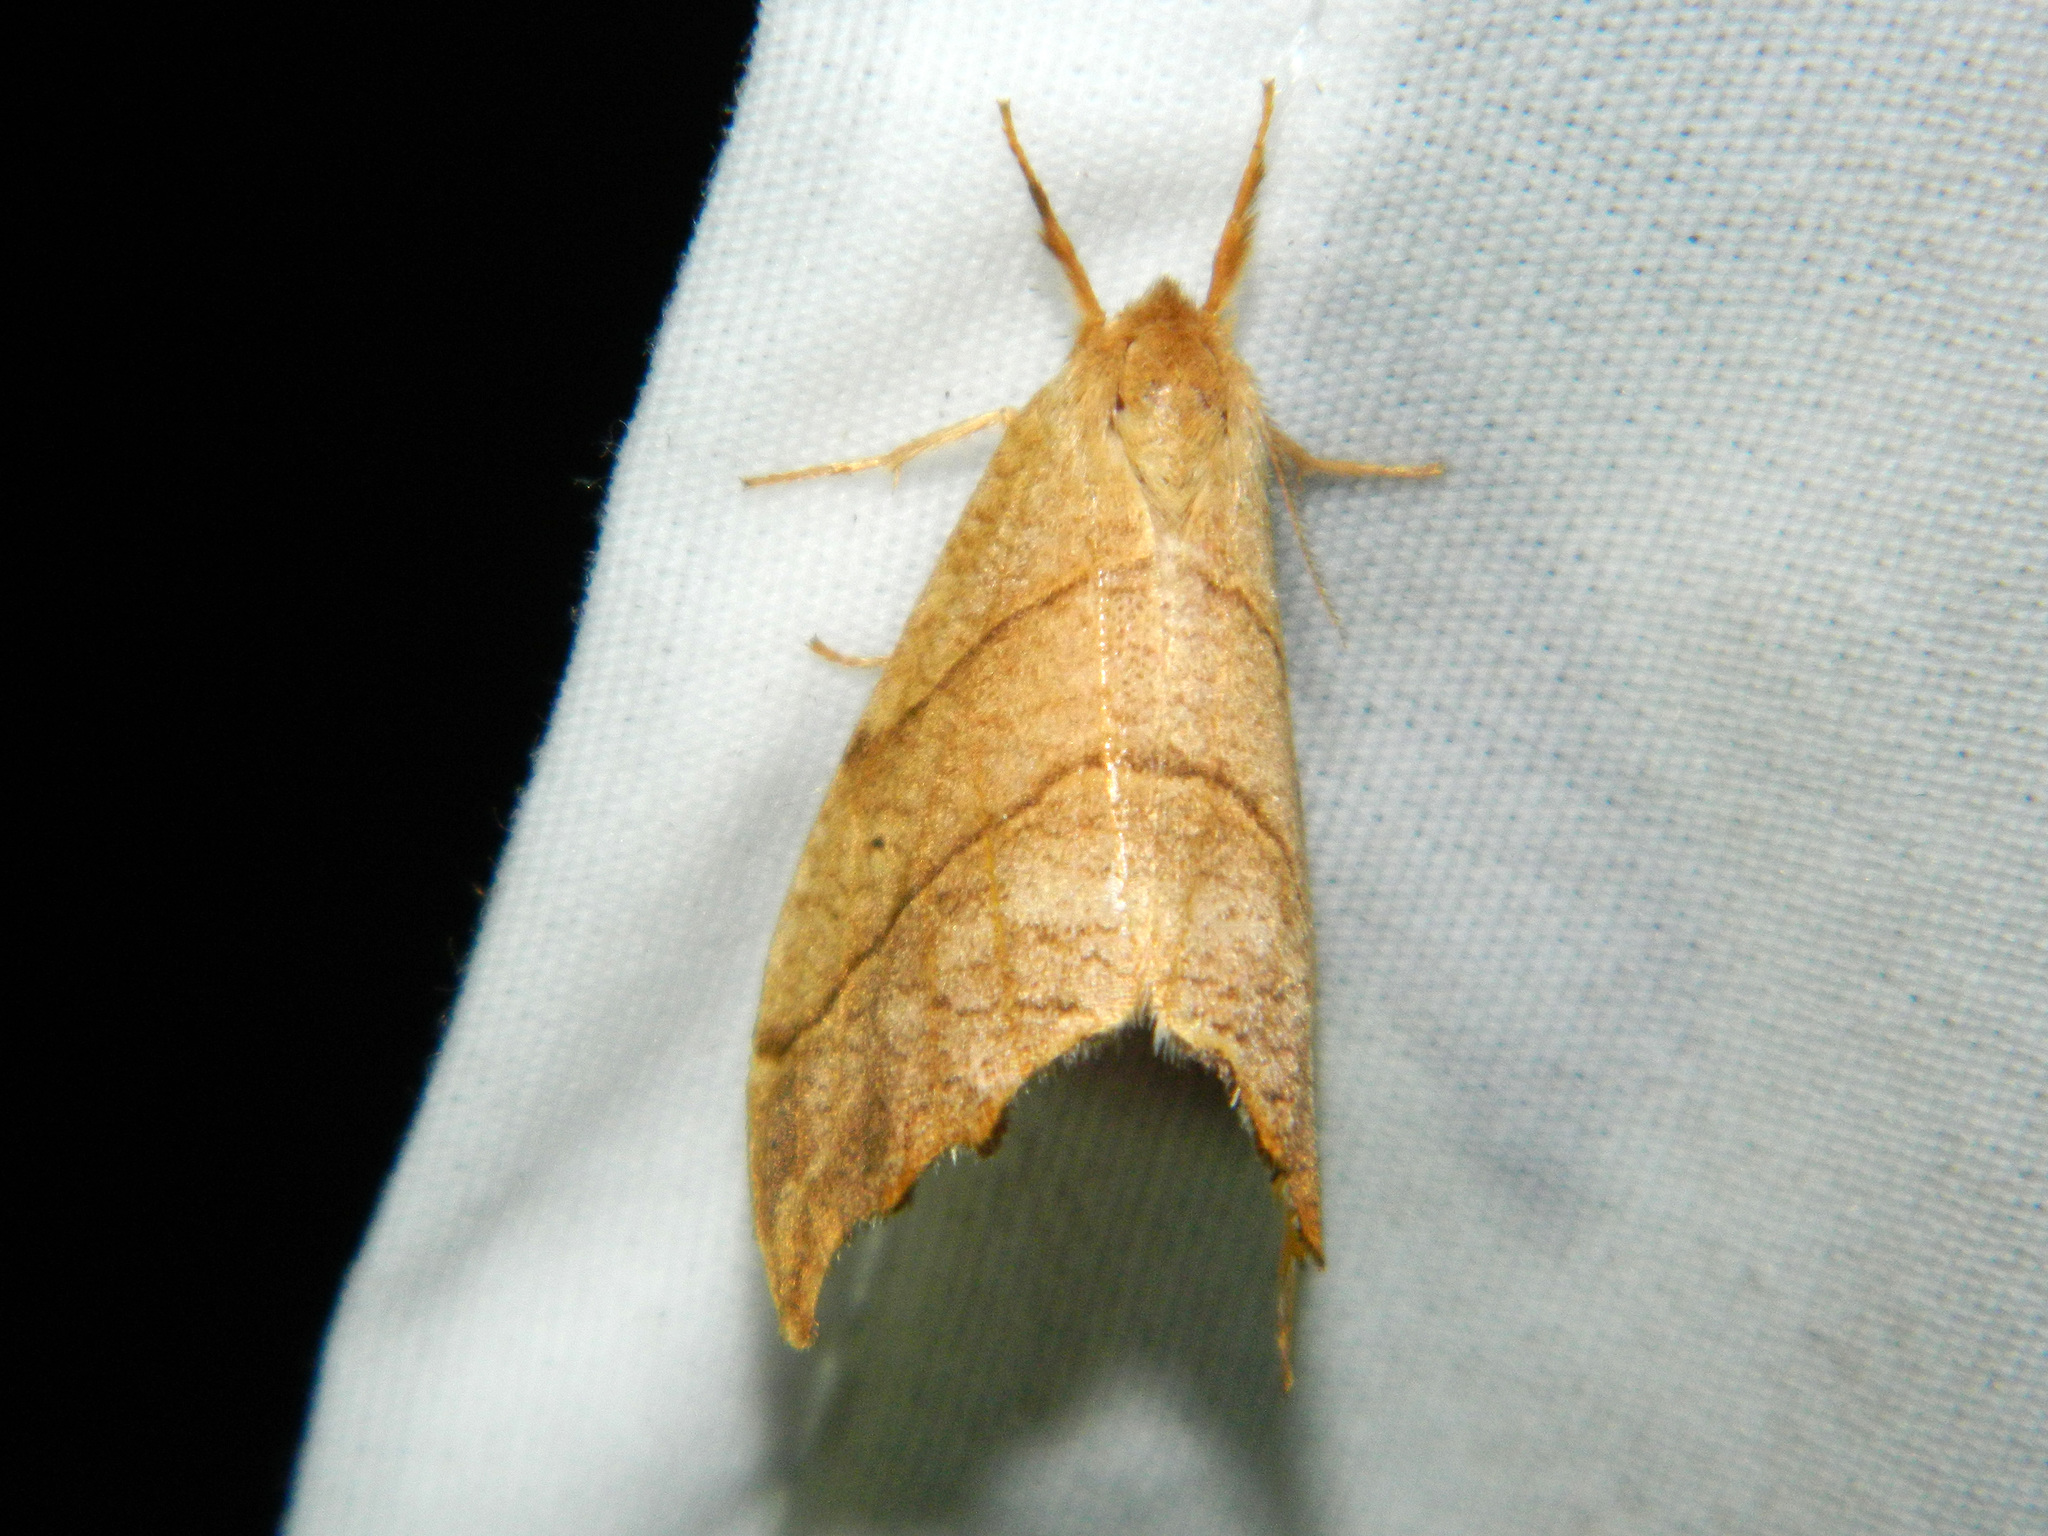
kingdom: Animalia
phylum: Arthropoda
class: Insecta
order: Lepidoptera
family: Drepanidae
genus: Falcaria
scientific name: Falcaria bilineata
